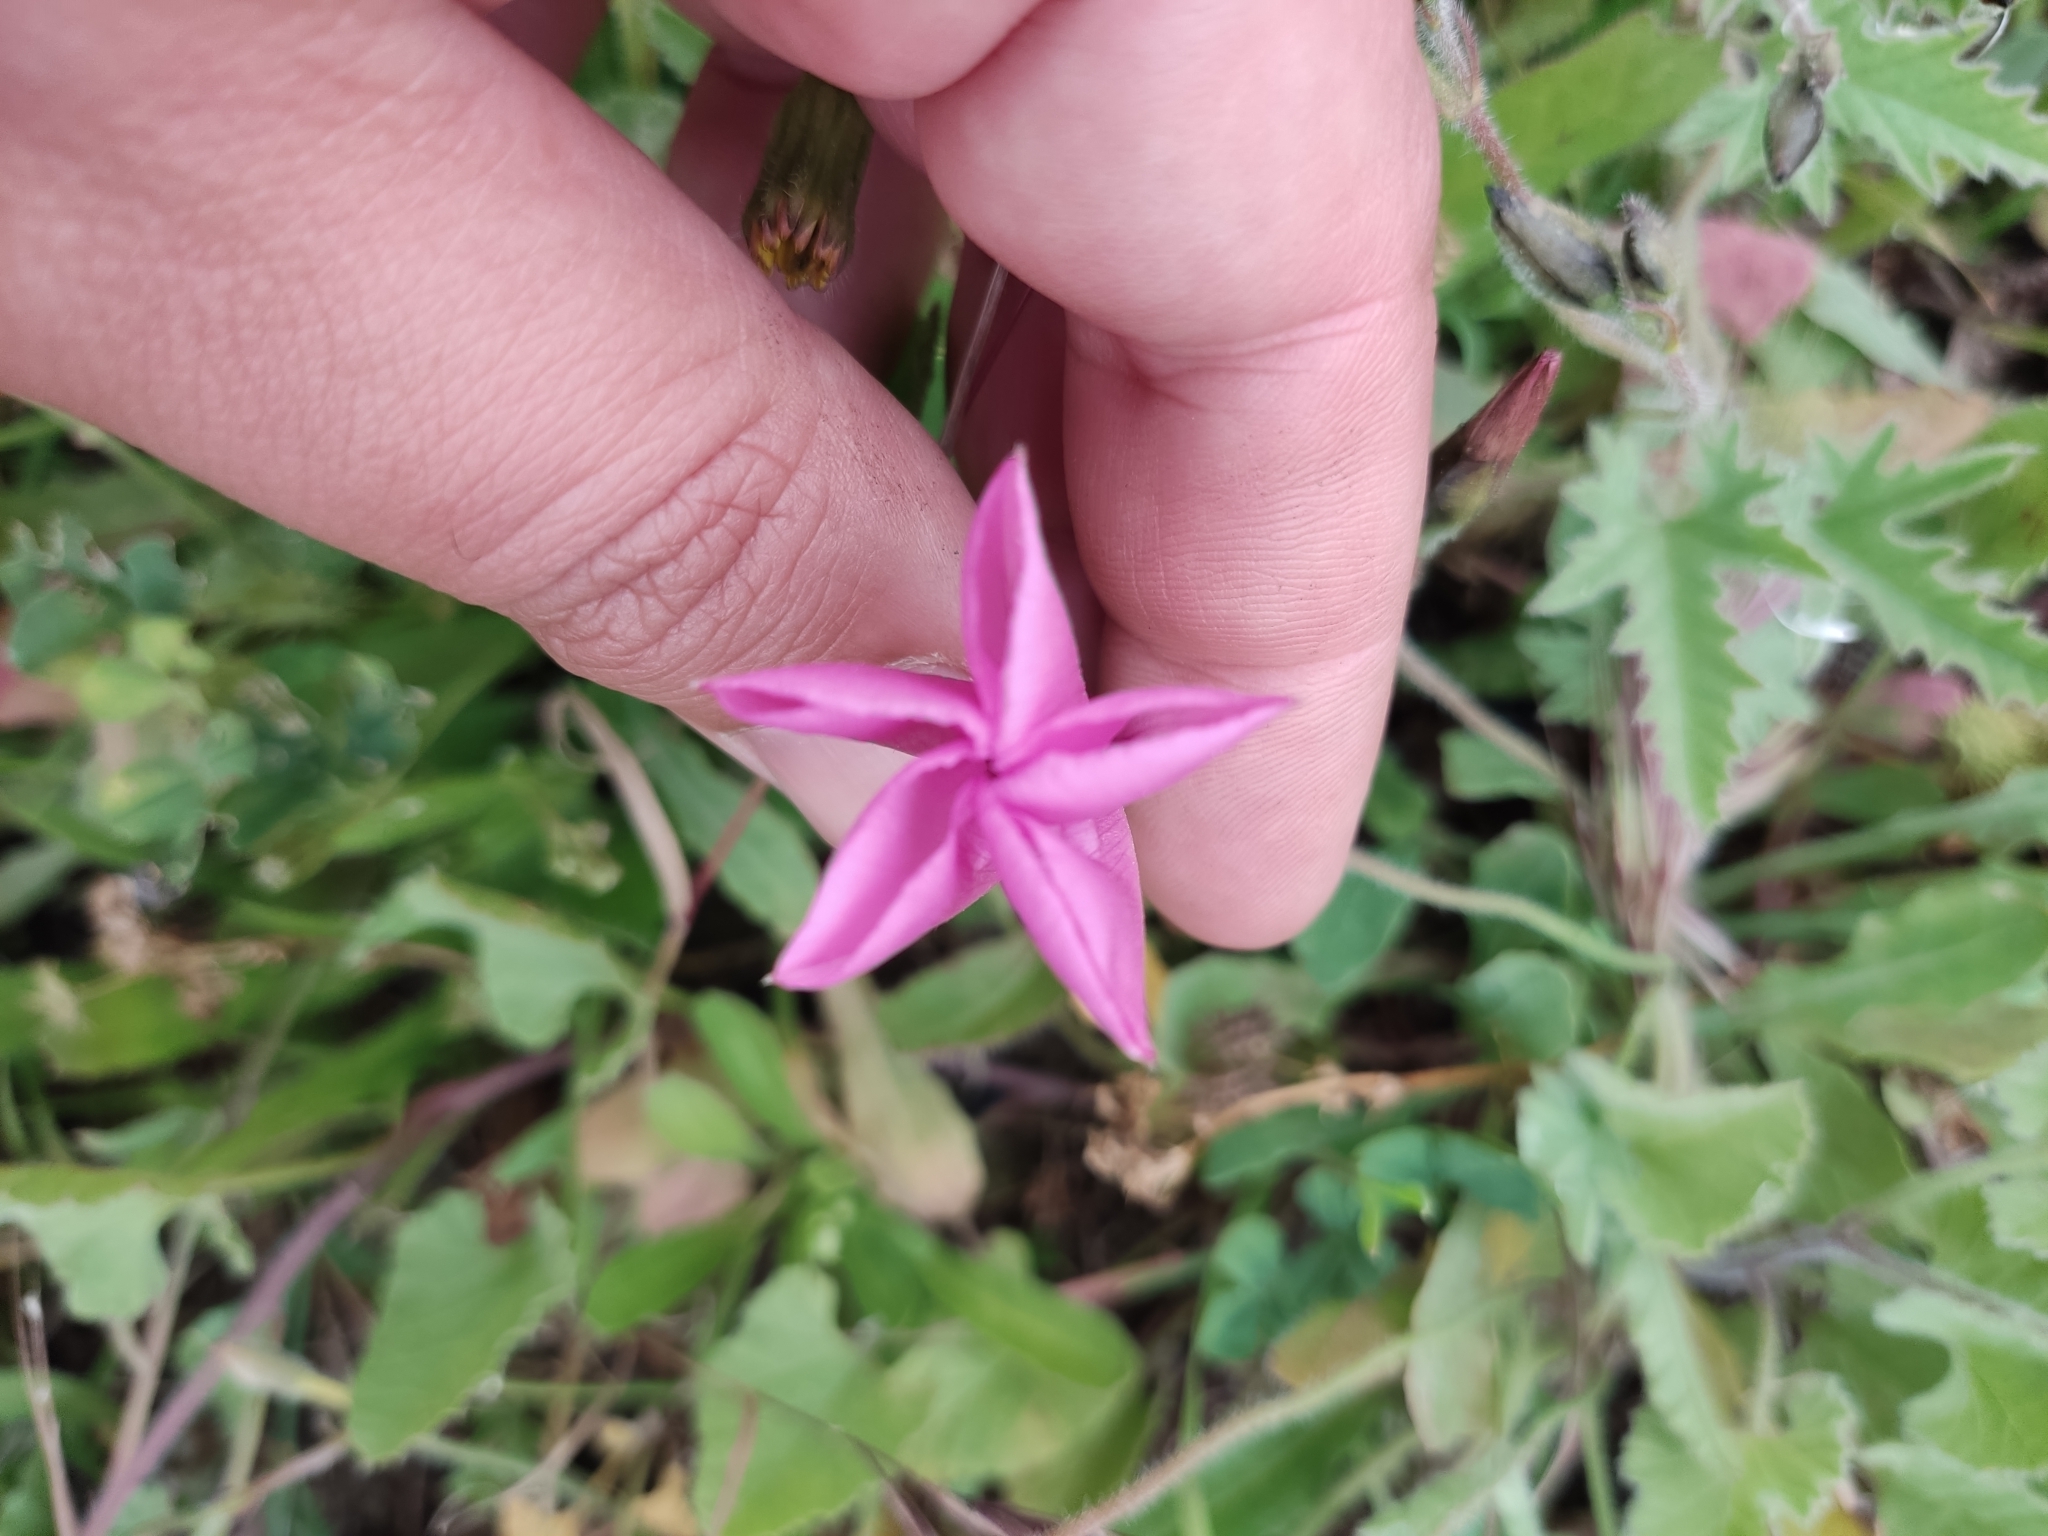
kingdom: Plantae
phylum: Tracheophyta
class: Magnoliopsida
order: Solanales
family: Convolvulaceae
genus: Convolvulus
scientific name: Convolvulus althaeoides
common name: Mallow bindweed
